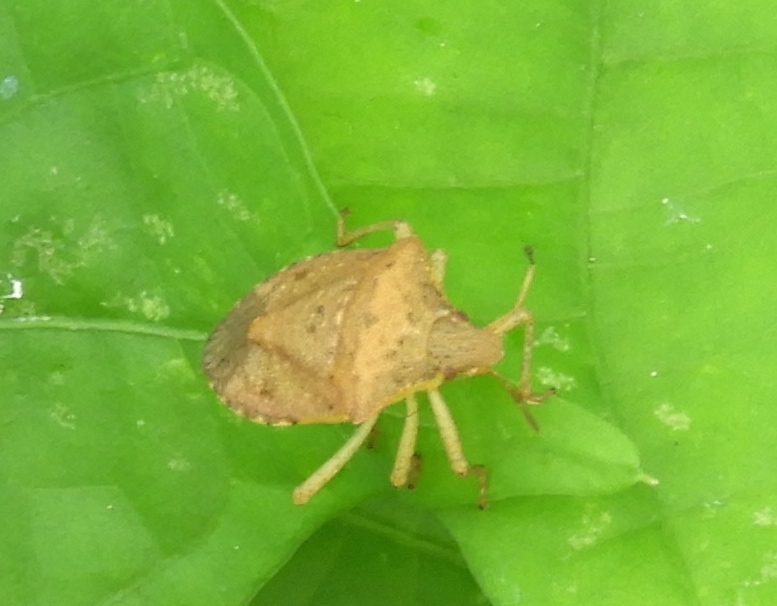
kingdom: Animalia
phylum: Arthropoda
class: Insecta
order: Hemiptera
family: Pentatomidae
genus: Euschistus
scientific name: Euschistus
